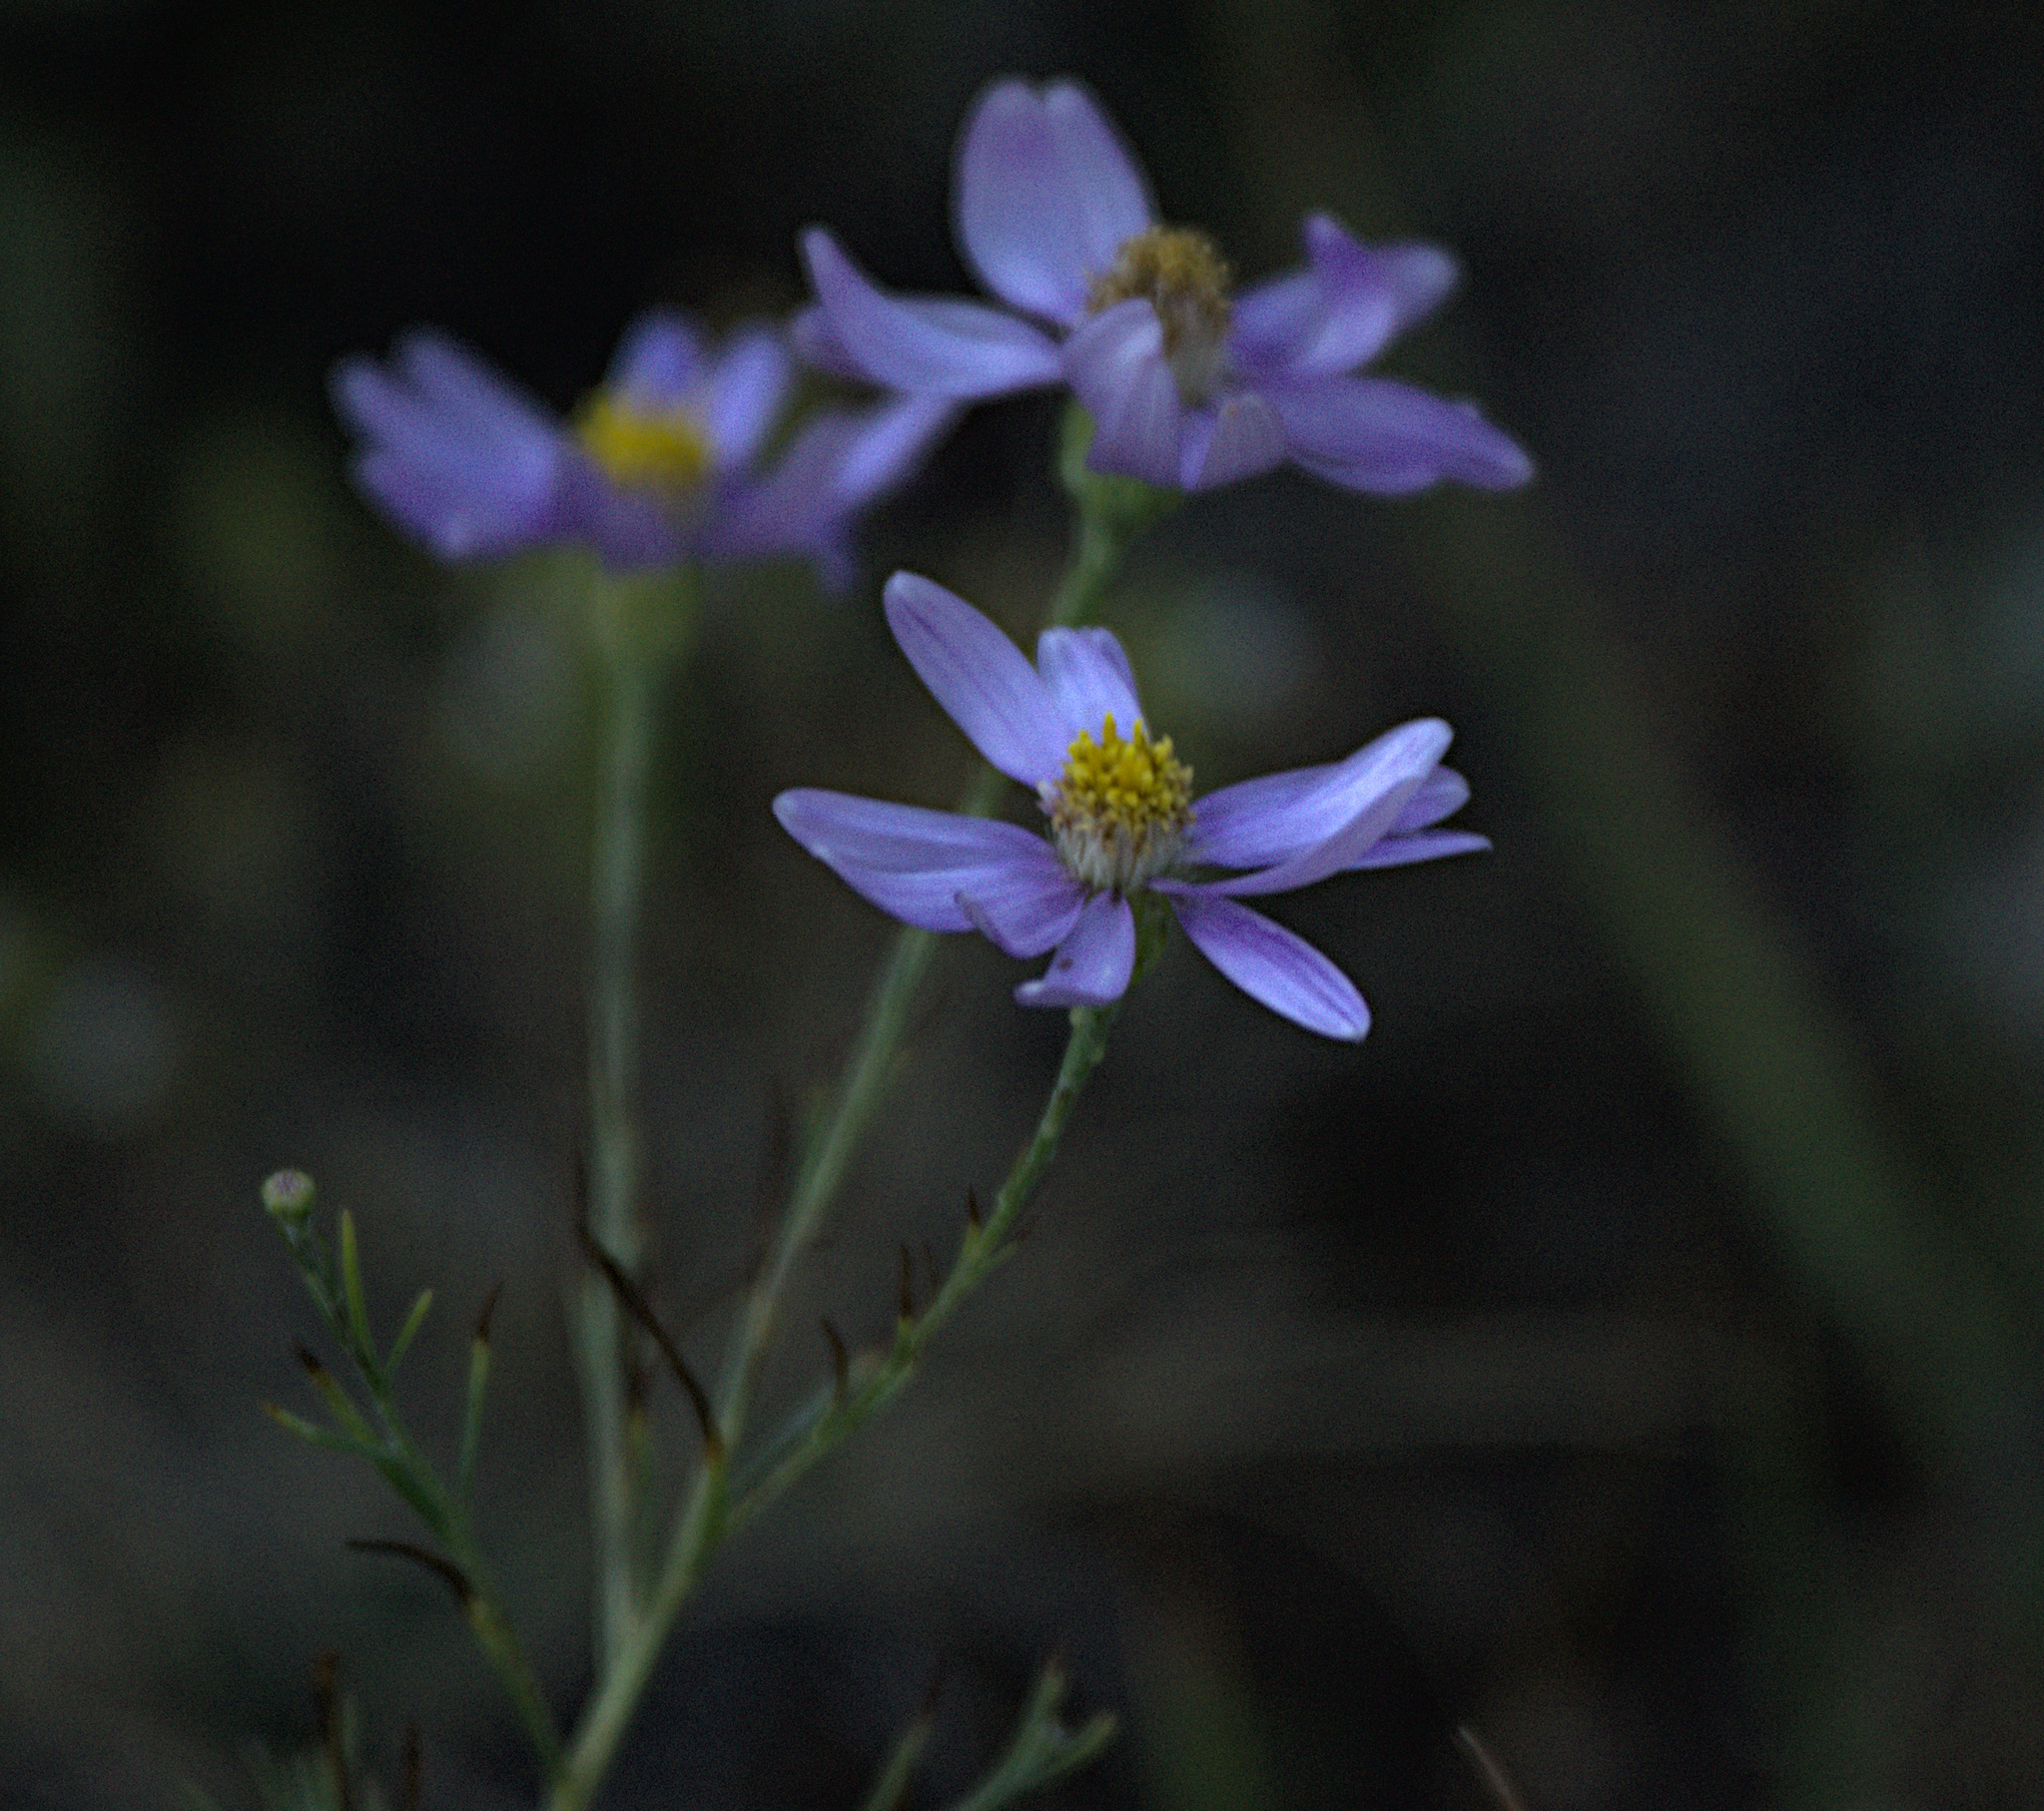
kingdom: Plantae
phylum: Tracheophyta
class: Magnoliopsida
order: Asterales
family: Asteraceae
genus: Galatella
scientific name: Galatella angustissima
